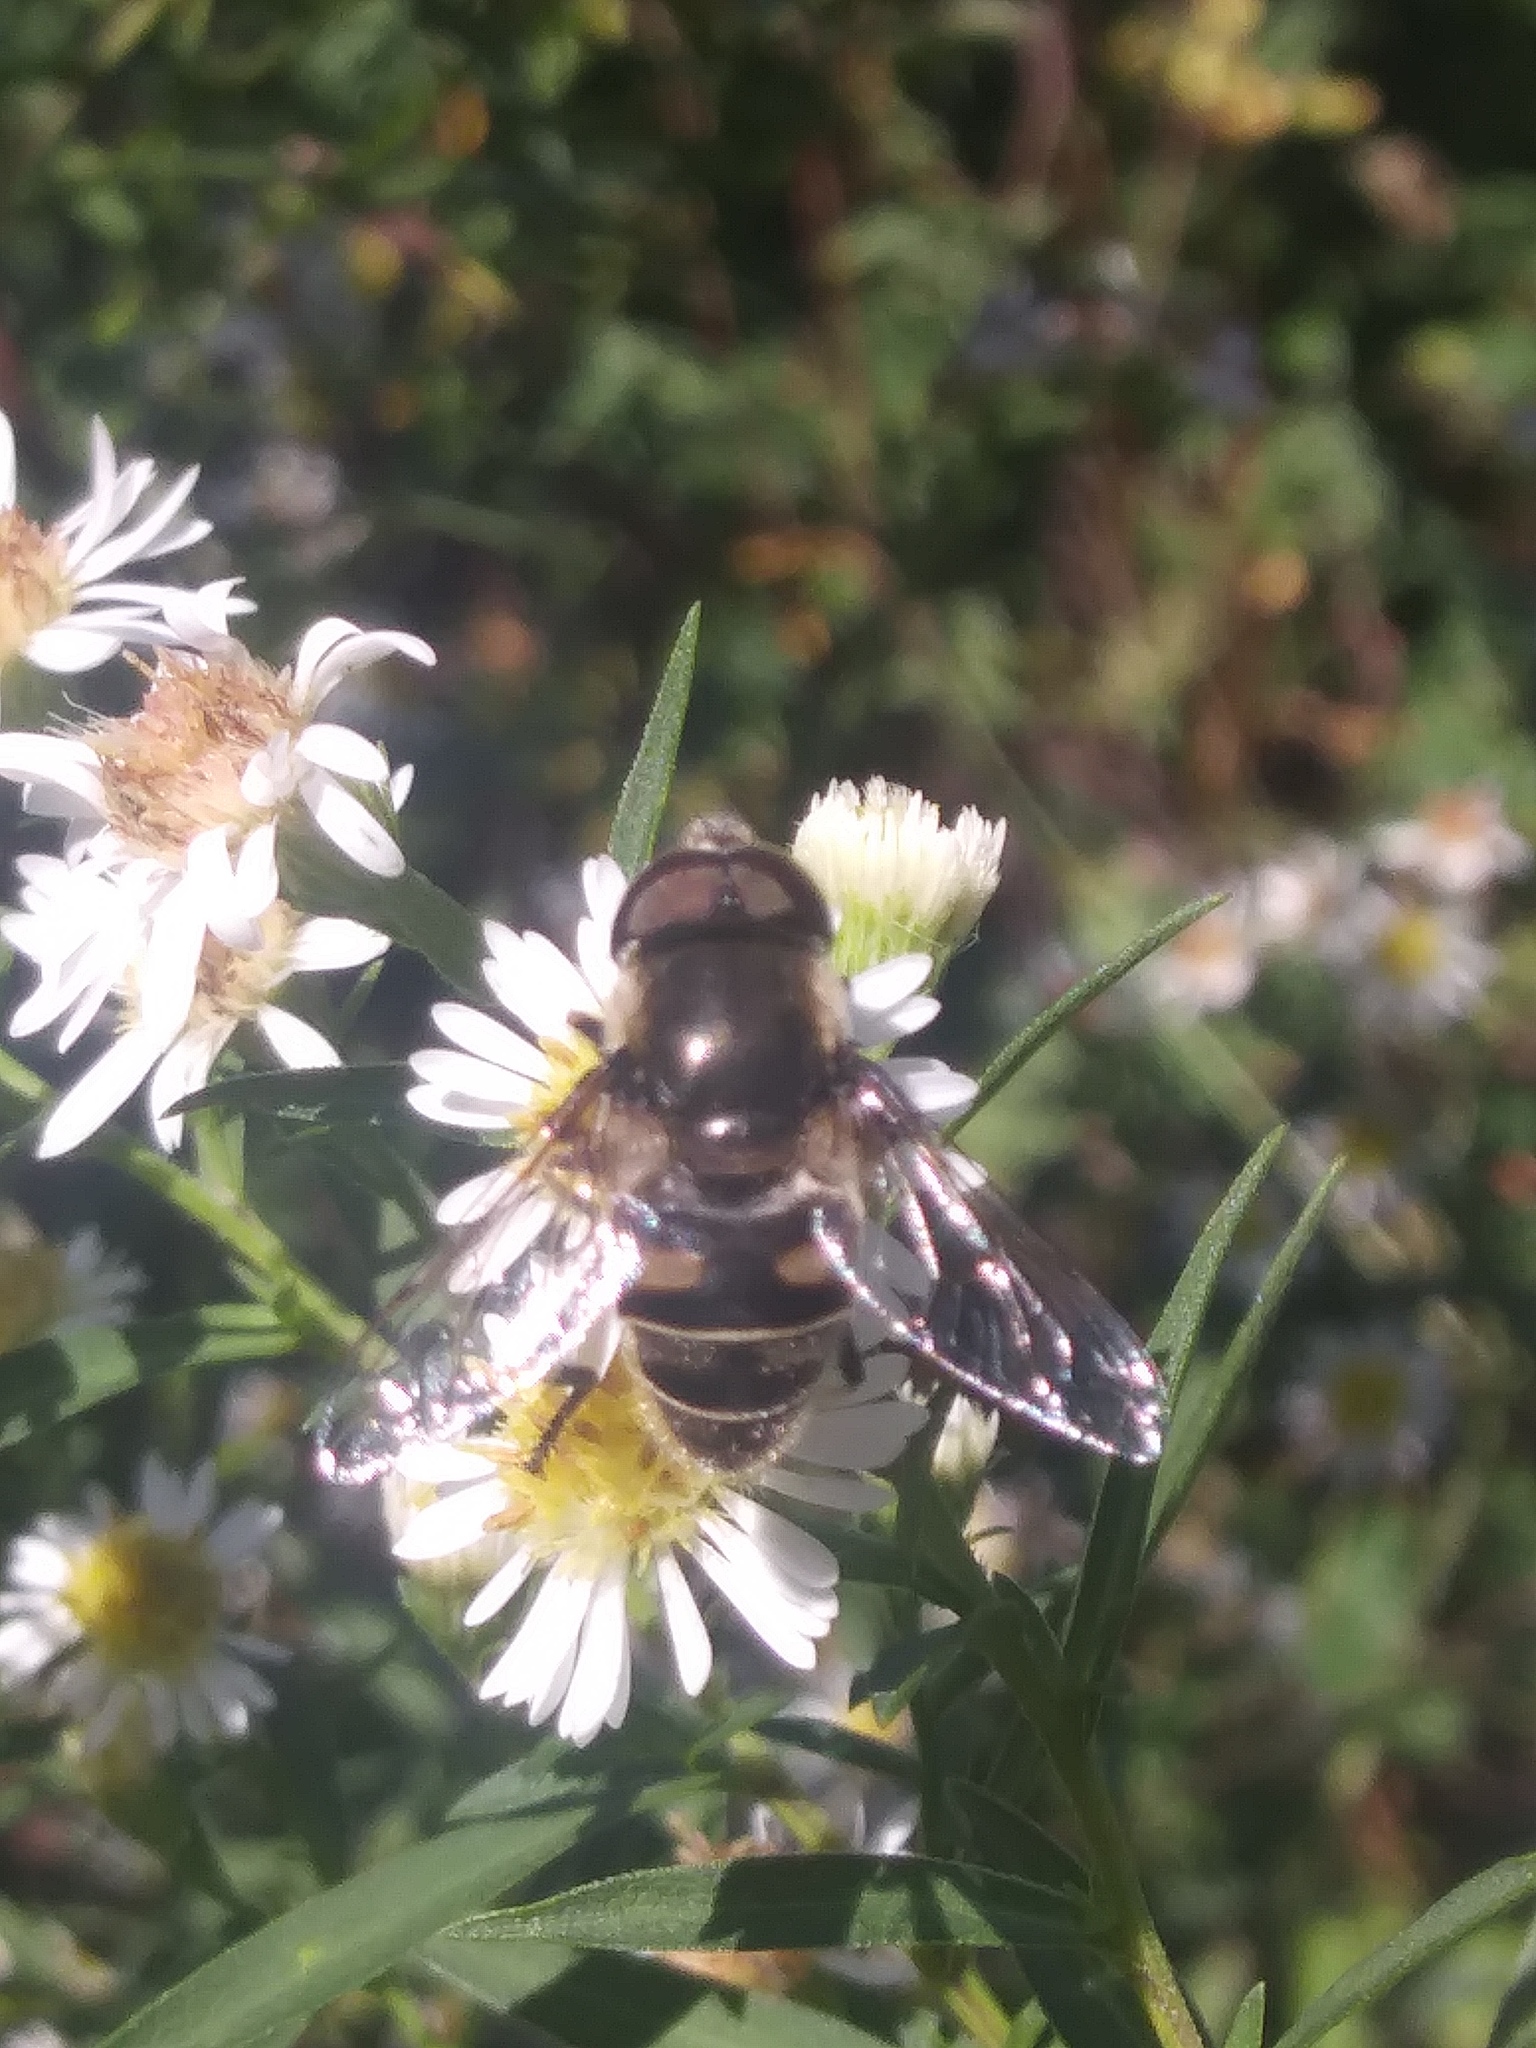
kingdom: Animalia
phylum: Arthropoda
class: Insecta
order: Diptera
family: Syrphidae
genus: Eristalis
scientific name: Eristalis dimidiata
